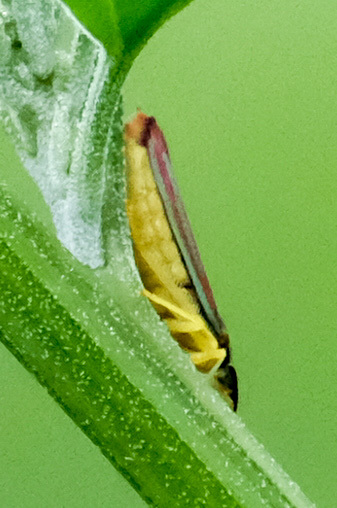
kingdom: Animalia
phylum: Arthropoda
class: Insecta
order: Hemiptera
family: Cicadellidae
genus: Graphocephala
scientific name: Graphocephala
